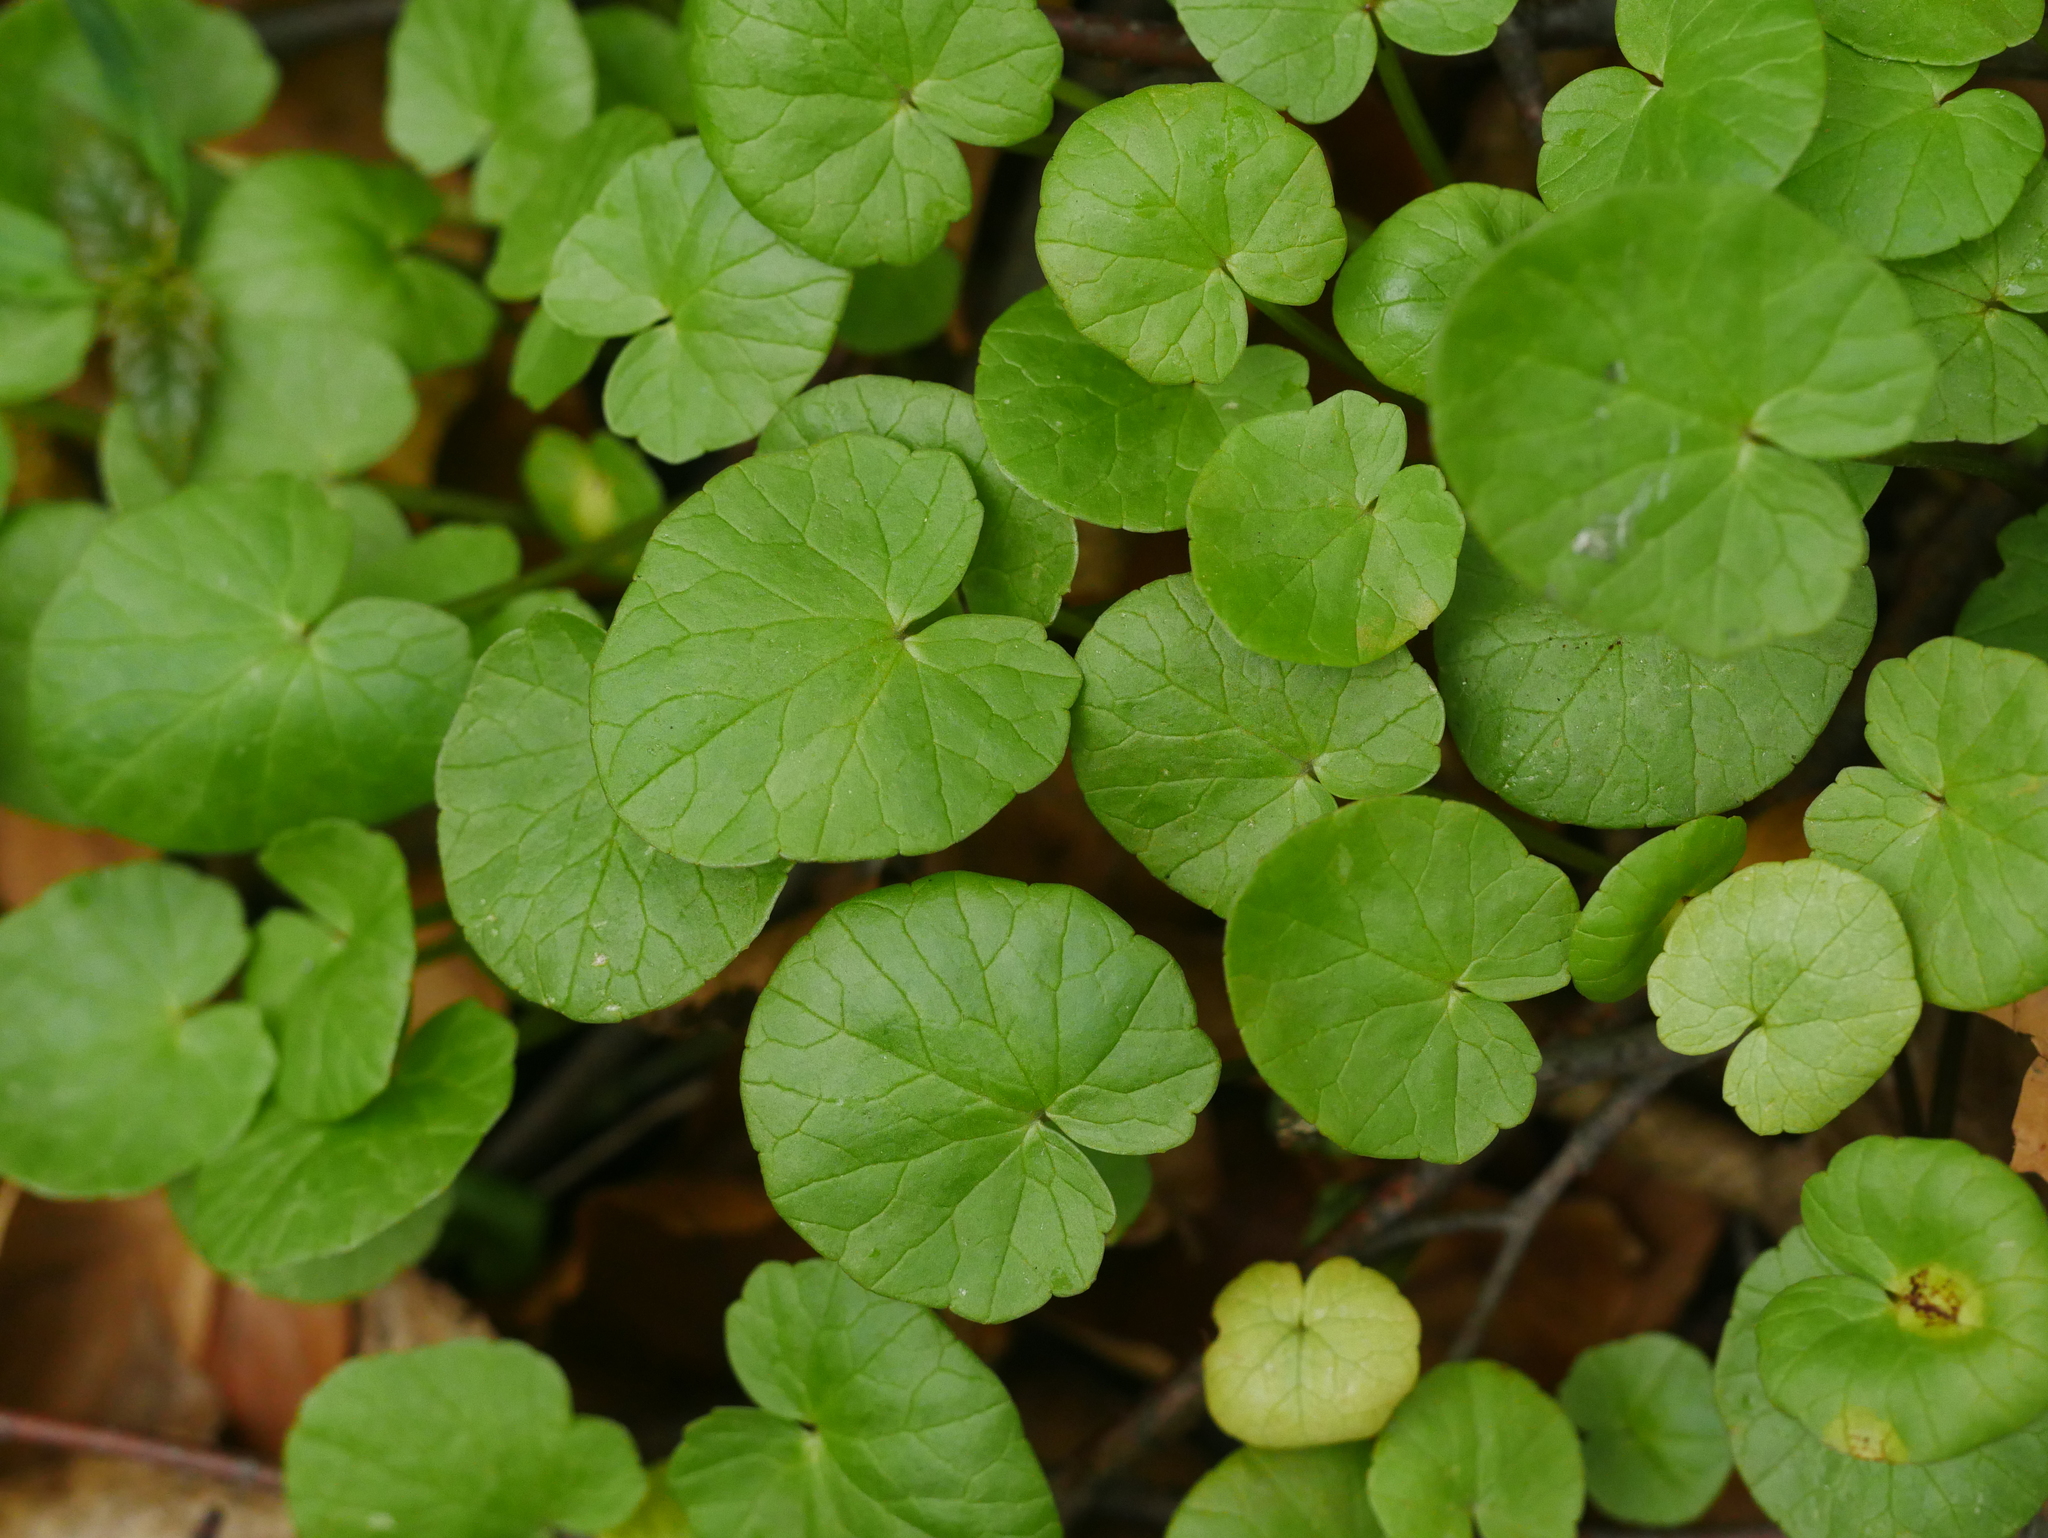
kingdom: Plantae
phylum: Tracheophyta
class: Magnoliopsida
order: Ranunculales
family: Ranunculaceae
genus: Ficaria
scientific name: Ficaria verna
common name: Lesser celandine
